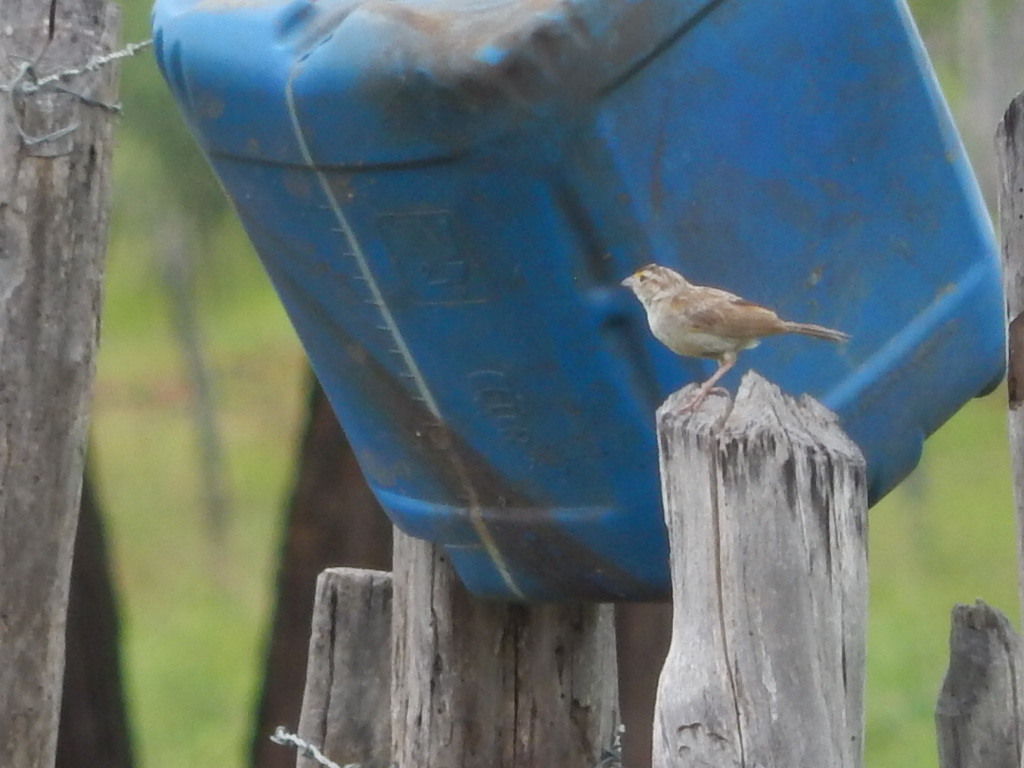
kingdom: Animalia
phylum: Chordata
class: Aves
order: Passeriformes
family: Passerellidae
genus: Ammodramus
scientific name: Ammodramus humeralis
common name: Grassland sparrow
